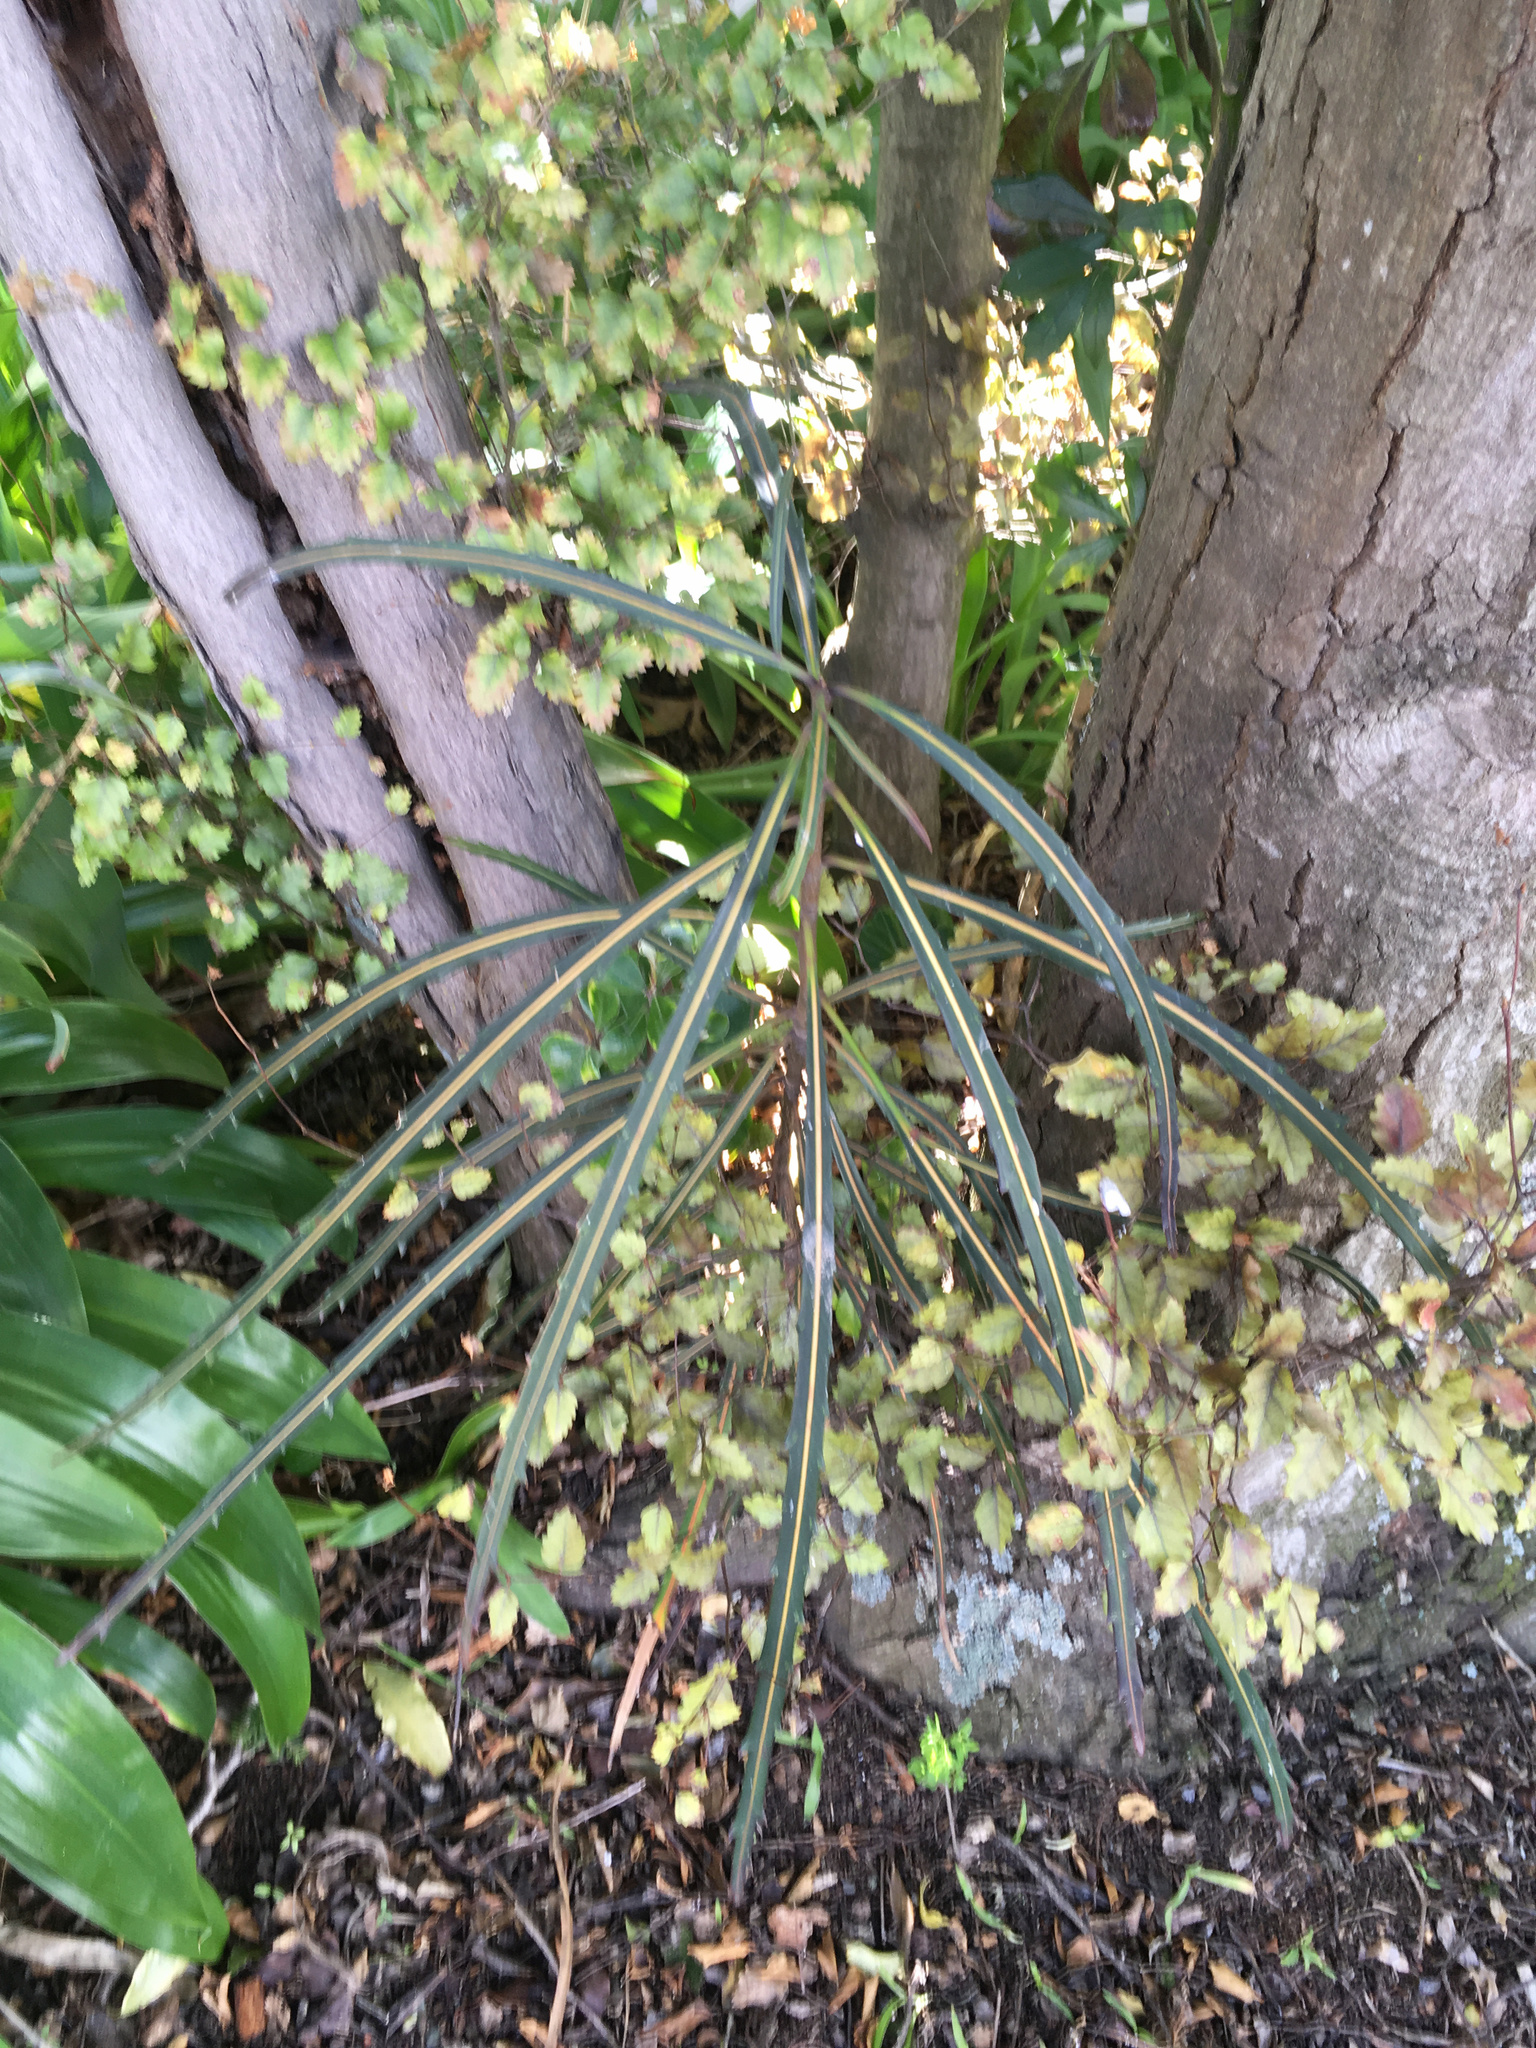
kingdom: Plantae
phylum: Tracheophyta
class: Magnoliopsida
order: Apiales
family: Araliaceae
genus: Pseudopanax
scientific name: Pseudopanax crassifolius
